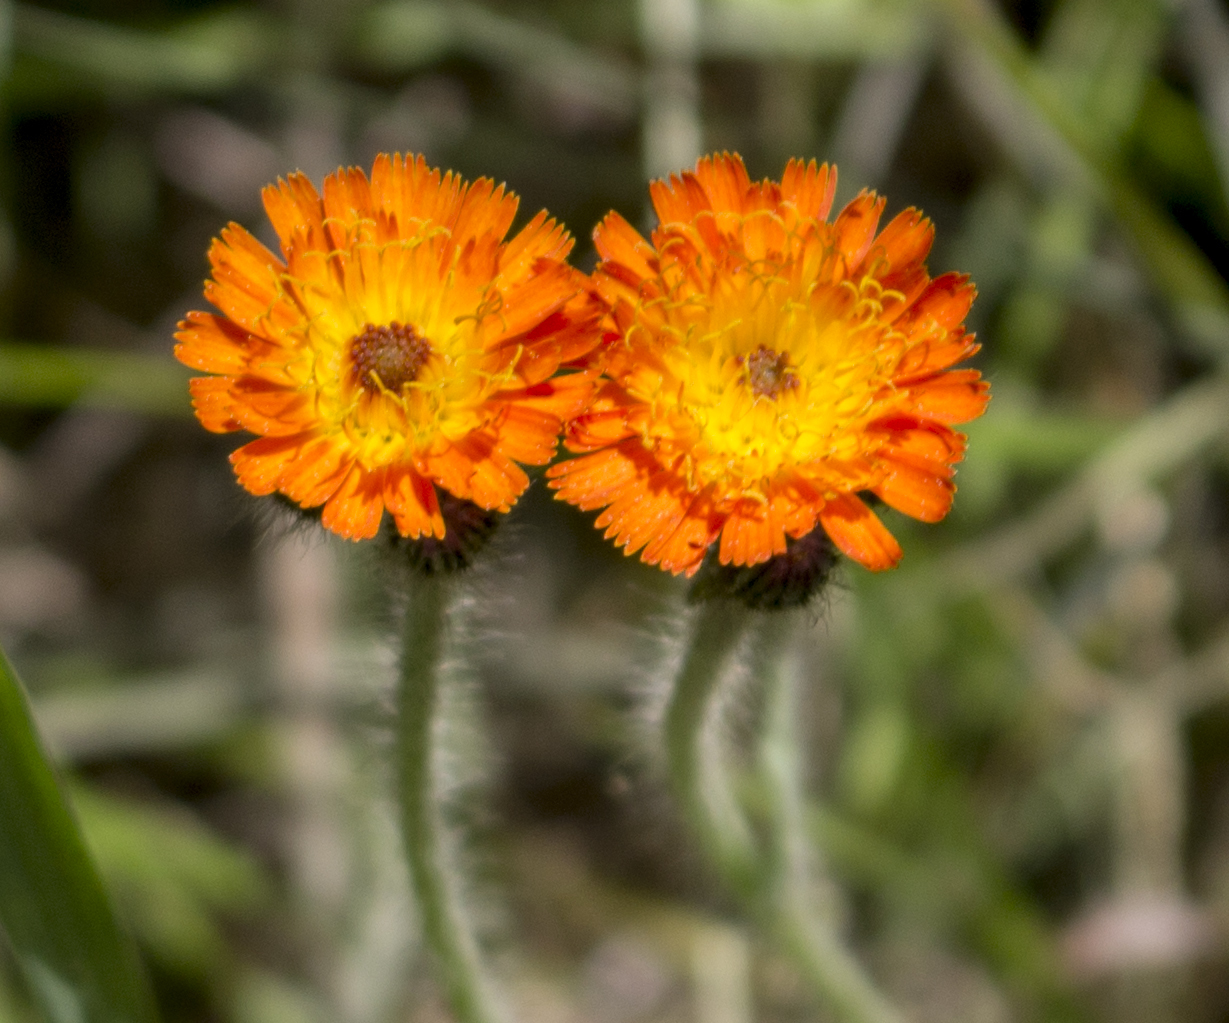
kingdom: Plantae
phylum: Tracheophyta
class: Magnoliopsida
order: Asterales
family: Asteraceae
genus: Pilosella
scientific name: Pilosella aurantiaca
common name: Fox-and-cubs
